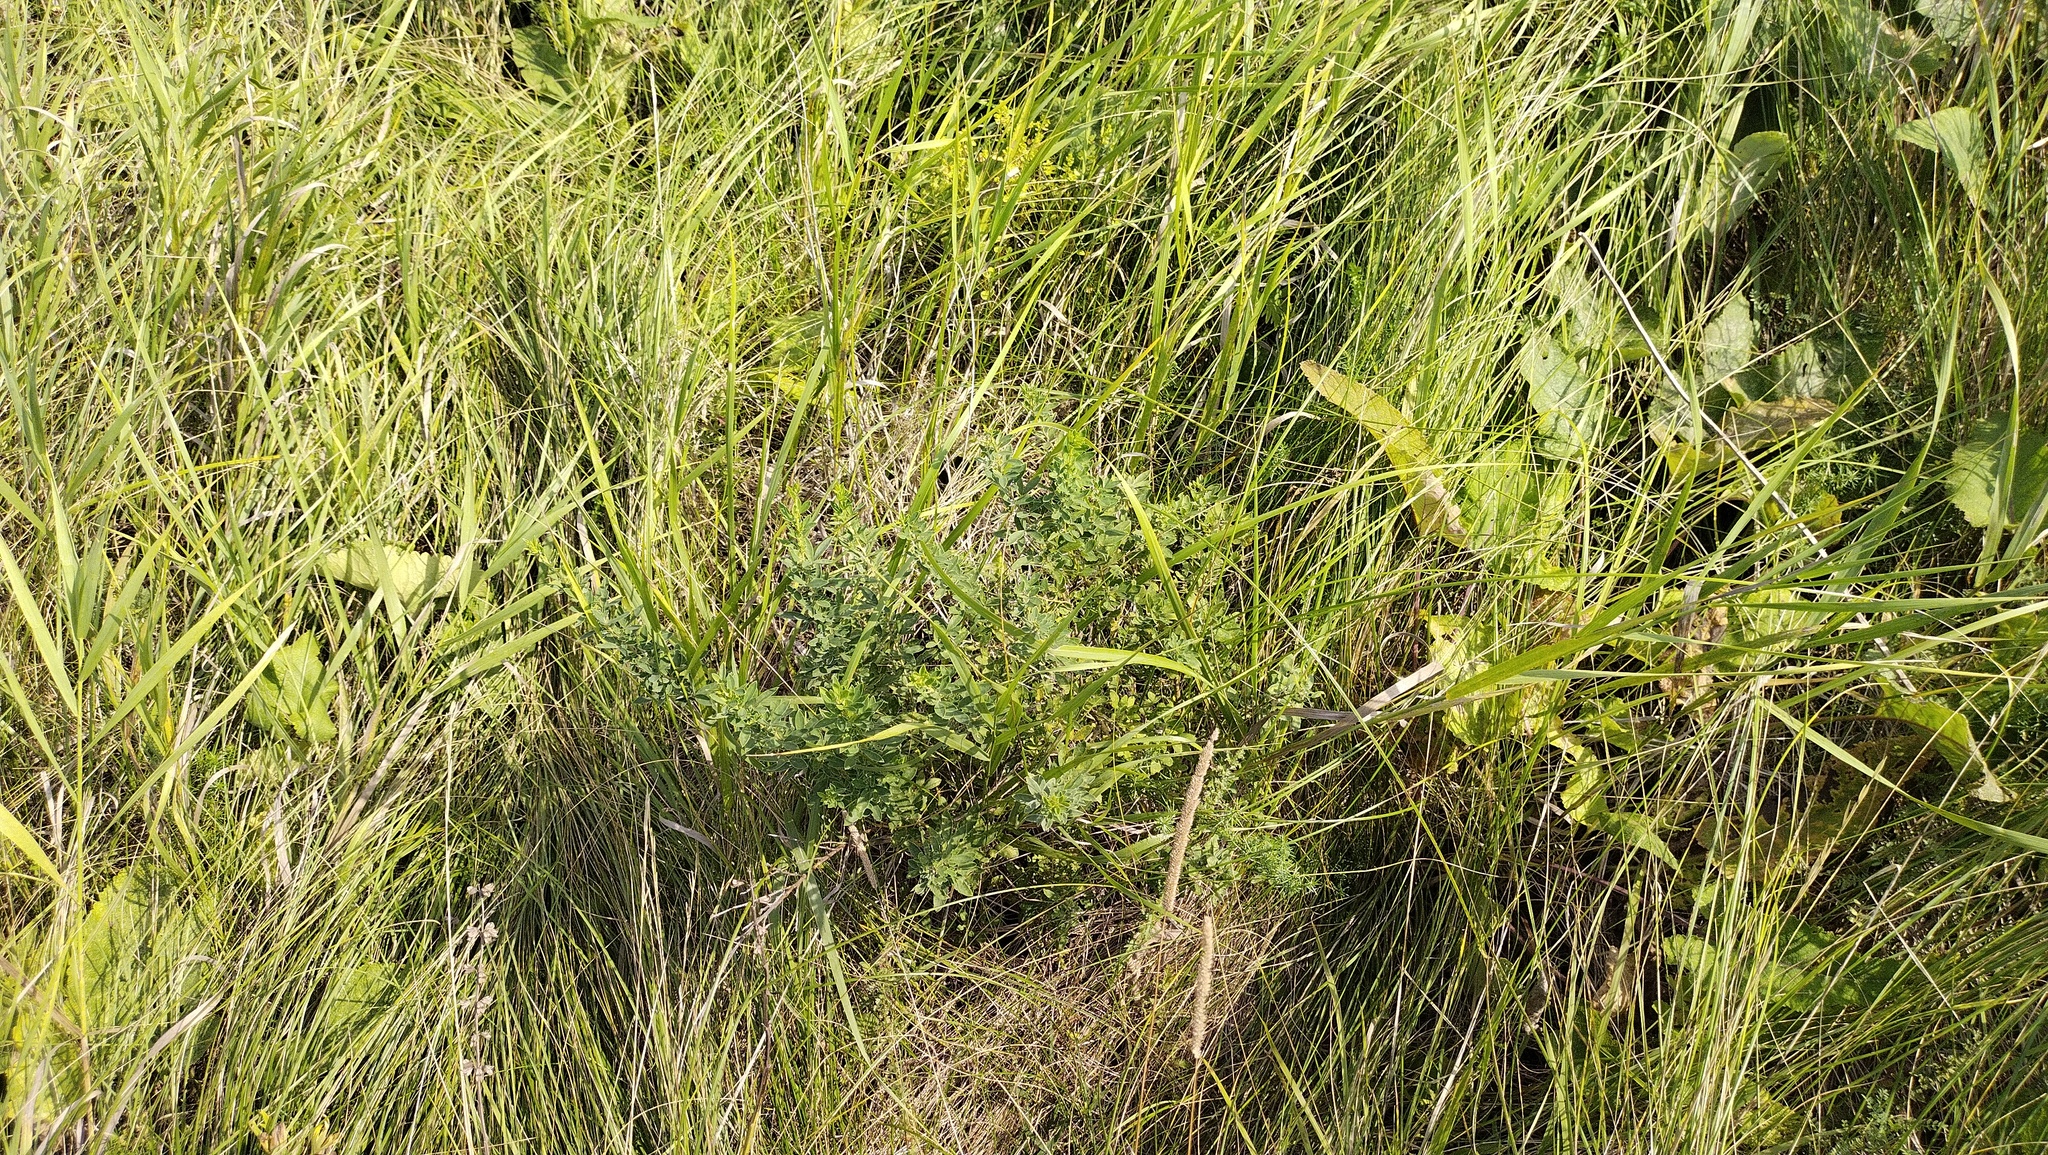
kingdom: Plantae
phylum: Tracheophyta
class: Magnoliopsida
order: Fabales
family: Fabaceae
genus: Chamaecytisus
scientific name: Chamaecytisus ruthenicus
